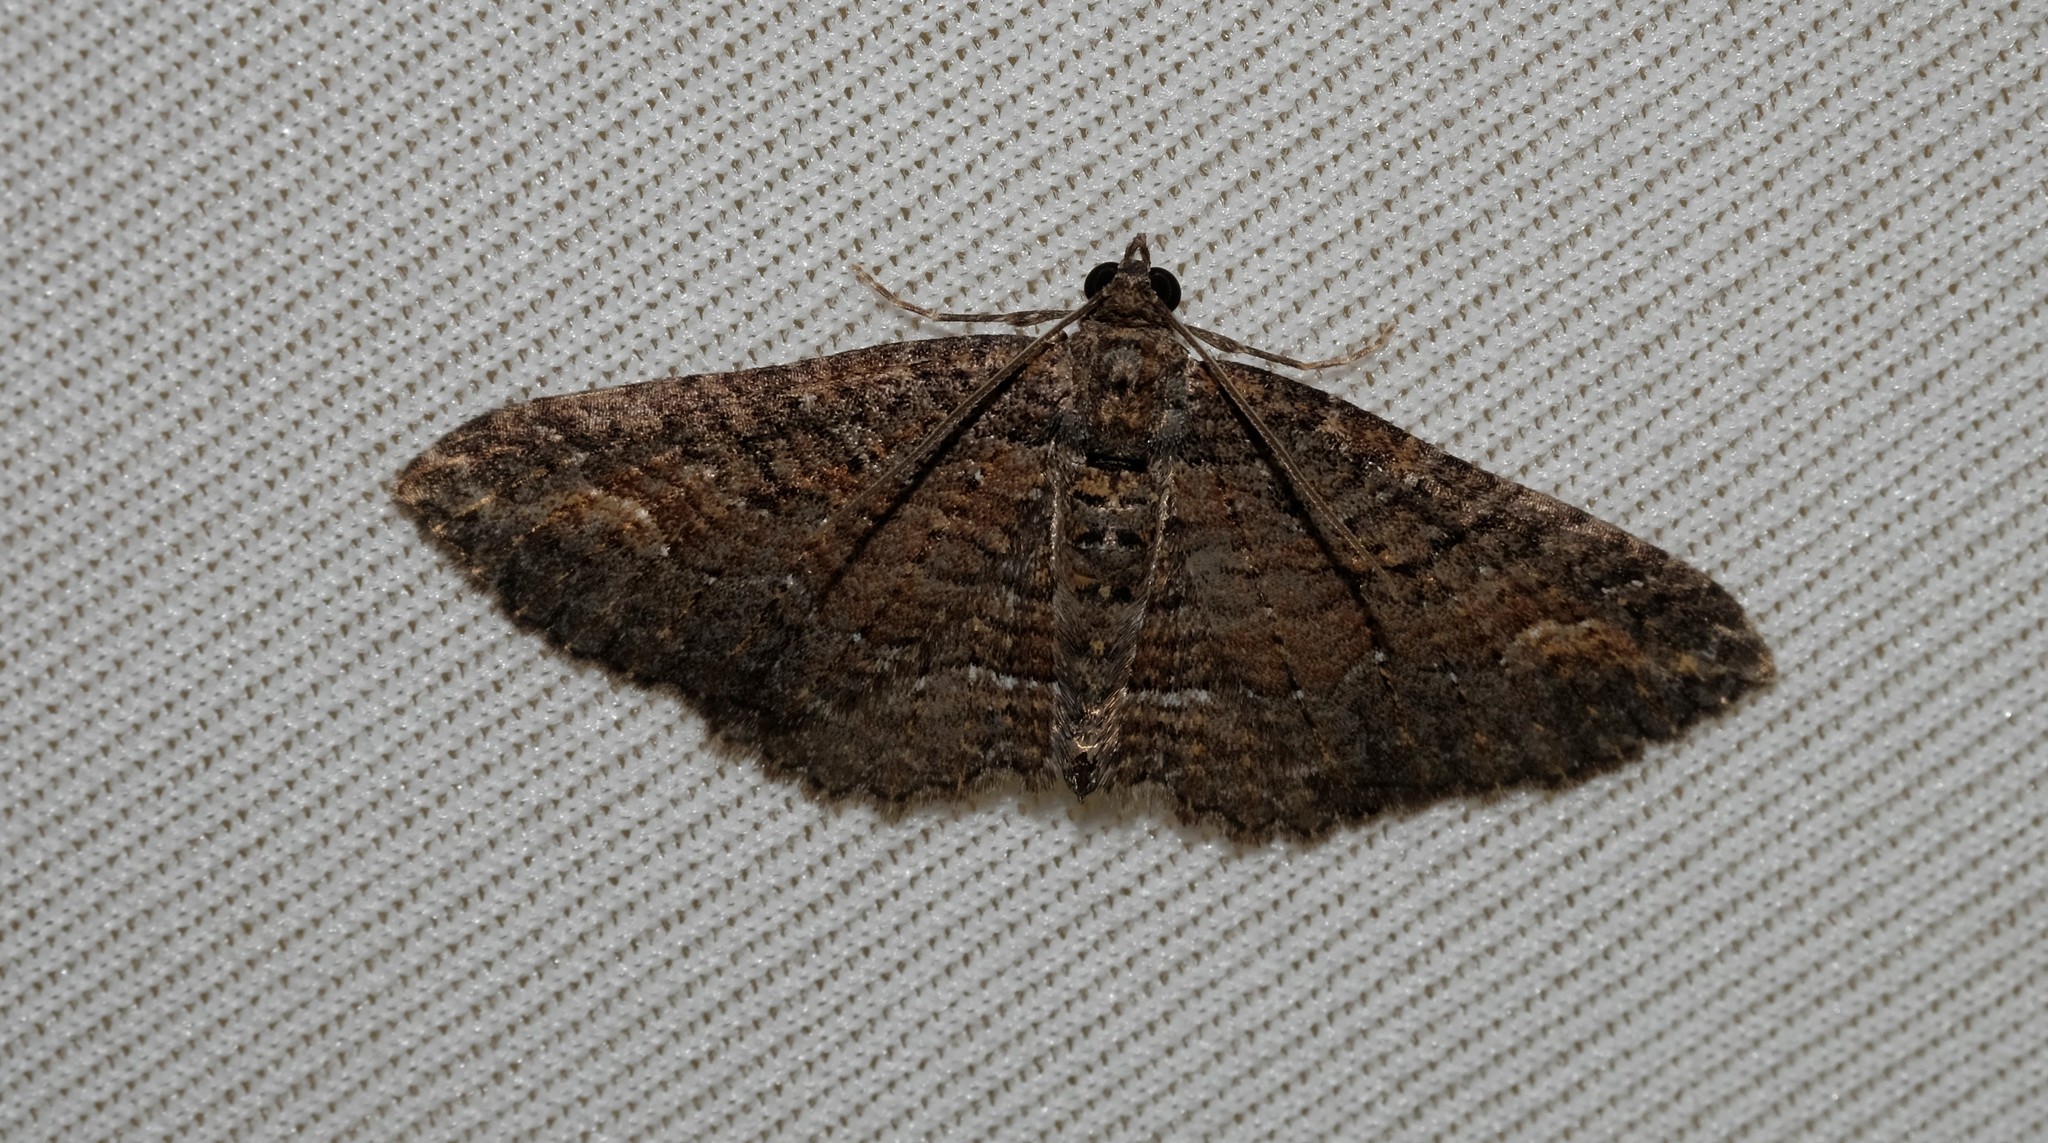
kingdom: Animalia
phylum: Arthropoda
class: Insecta
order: Lepidoptera
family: Geometridae
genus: Eupithecia
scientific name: Eupithecia Eucymatoge scotodes
